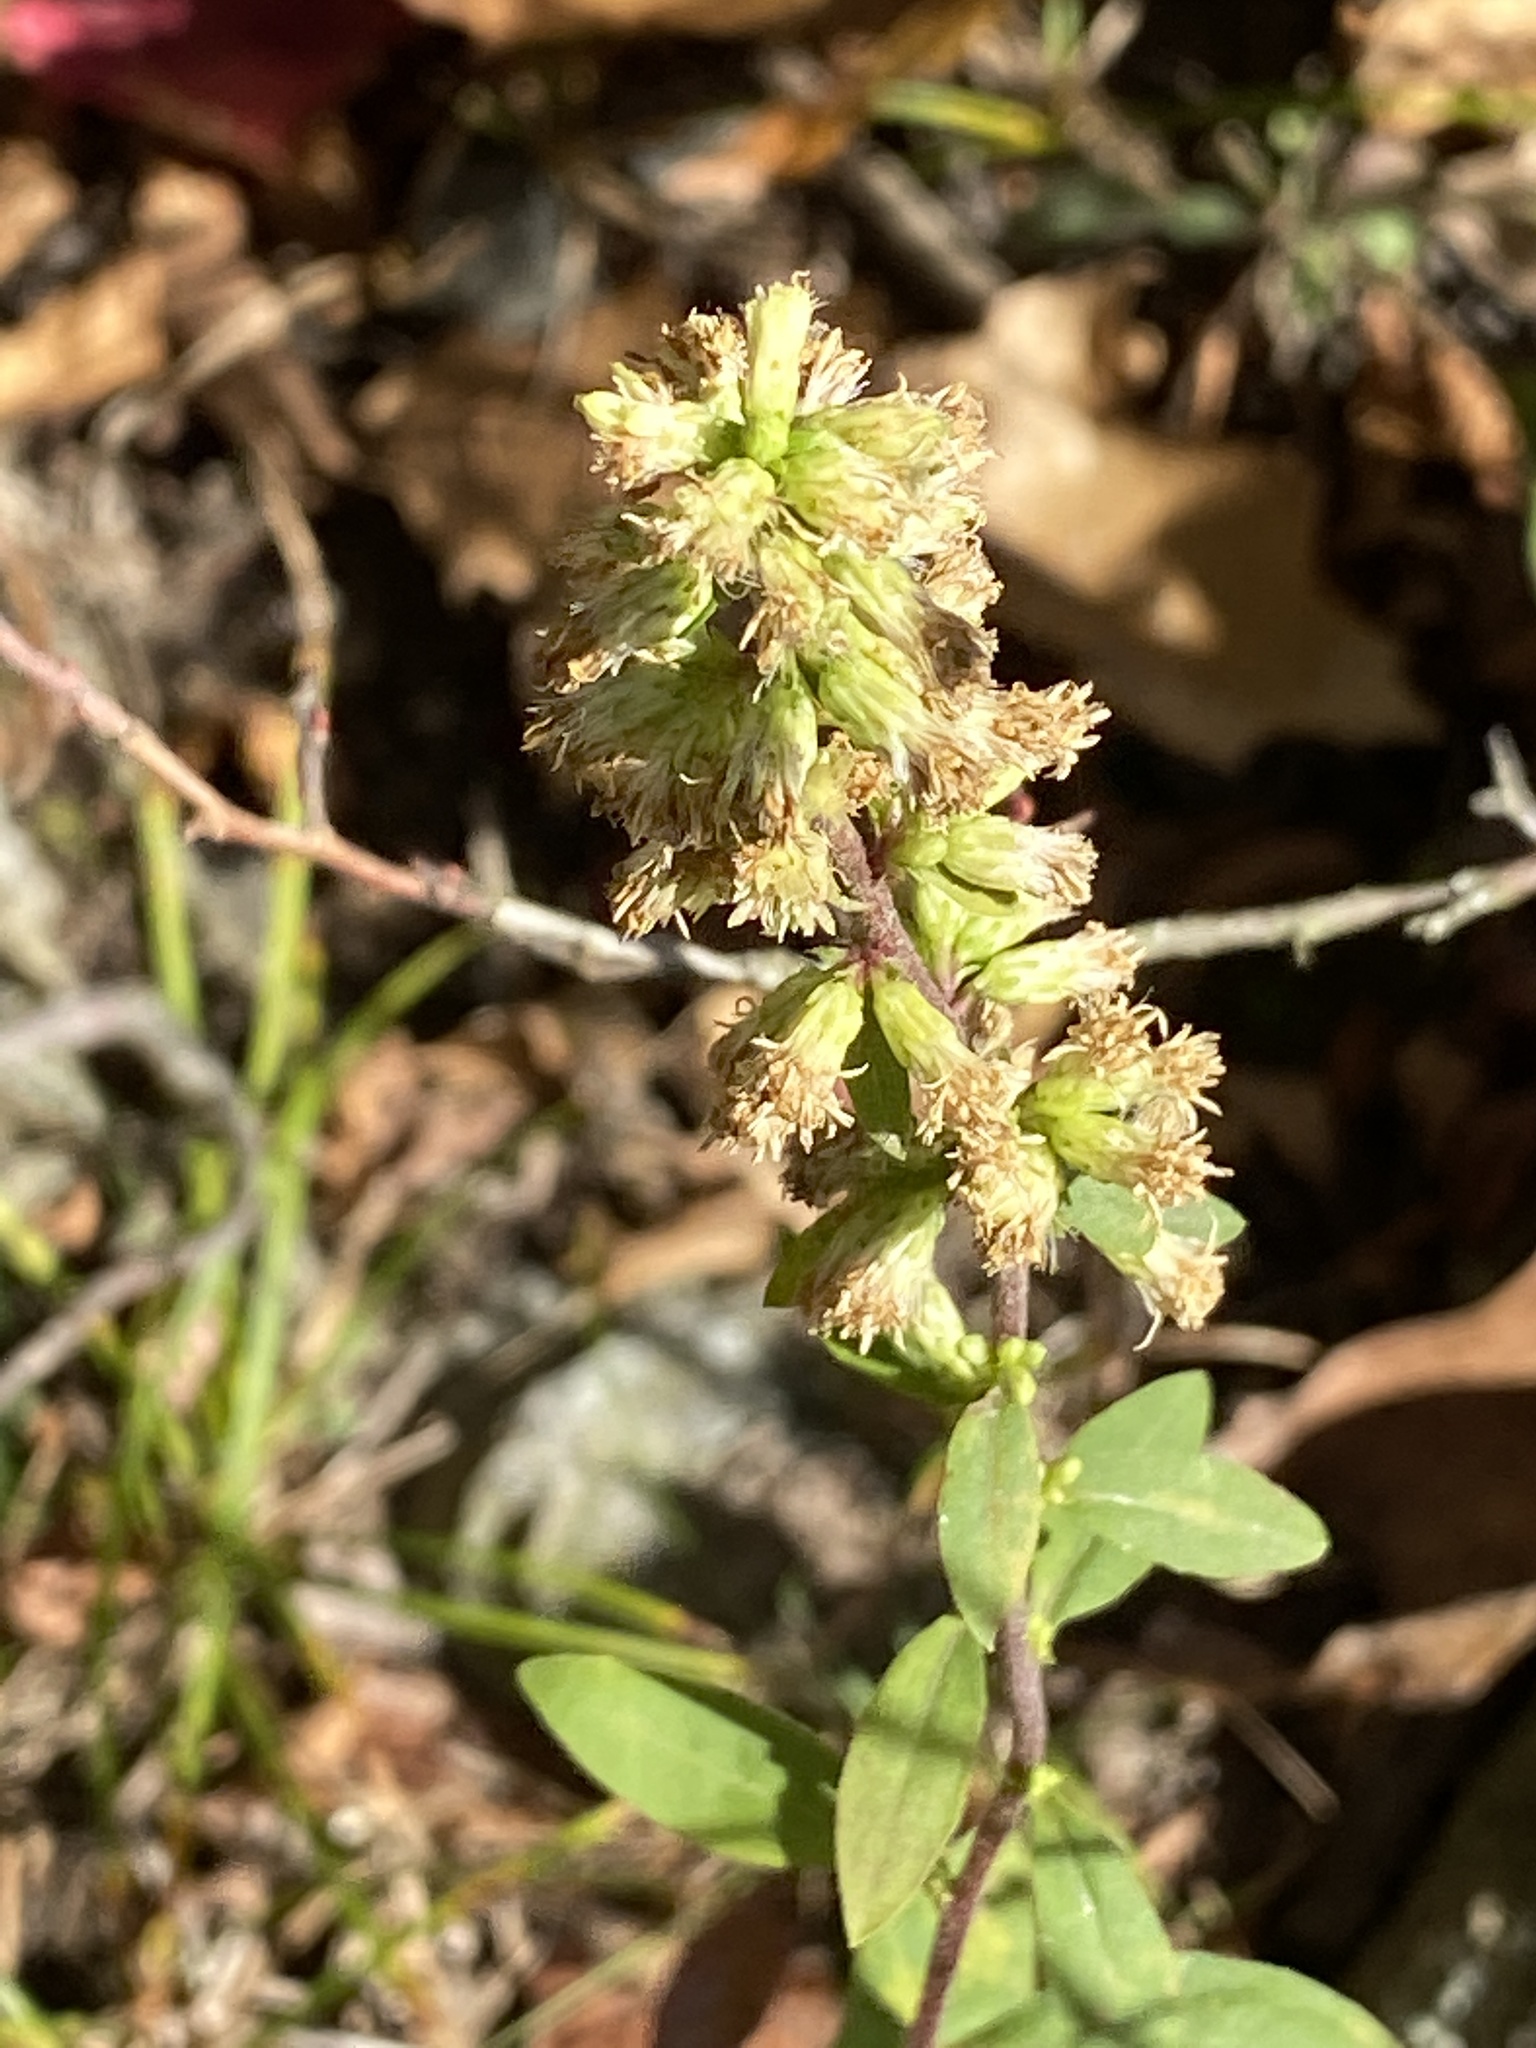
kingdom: Plantae
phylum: Tracheophyta
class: Magnoliopsida
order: Asterales
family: Asteraceae
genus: Solidago
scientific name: Solidago bicolor
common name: Silverrod
